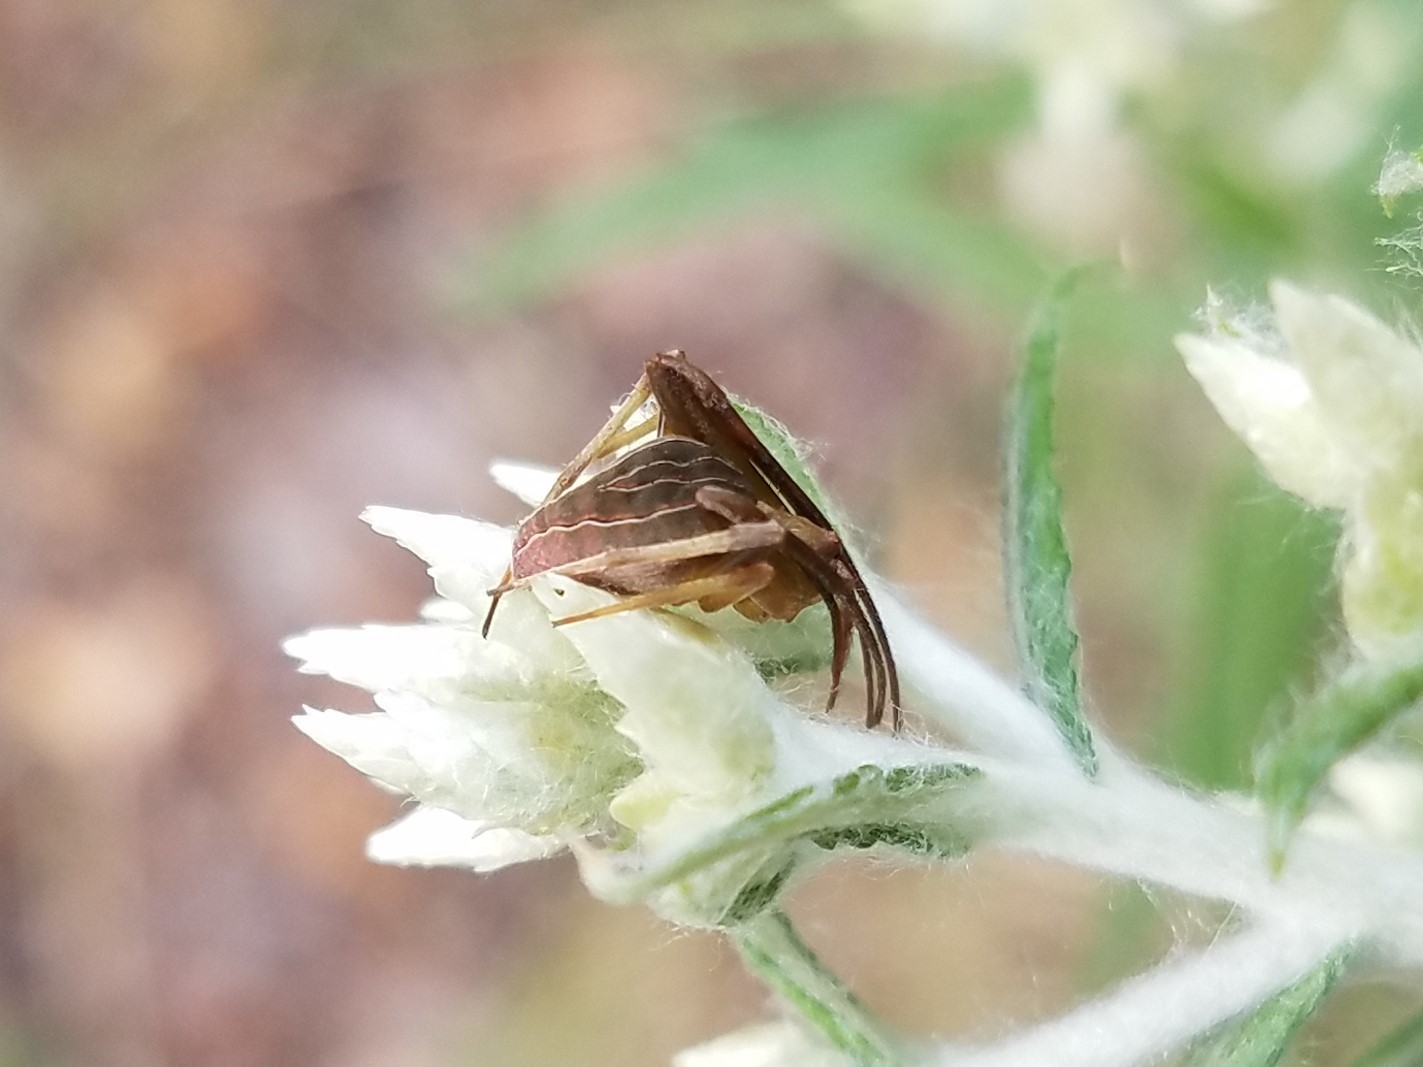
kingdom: Animalia
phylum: Arthropoda
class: Arachnida
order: Araneae
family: Araneidae
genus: Acacesia
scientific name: Acacesia hamata
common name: Orb weavers
